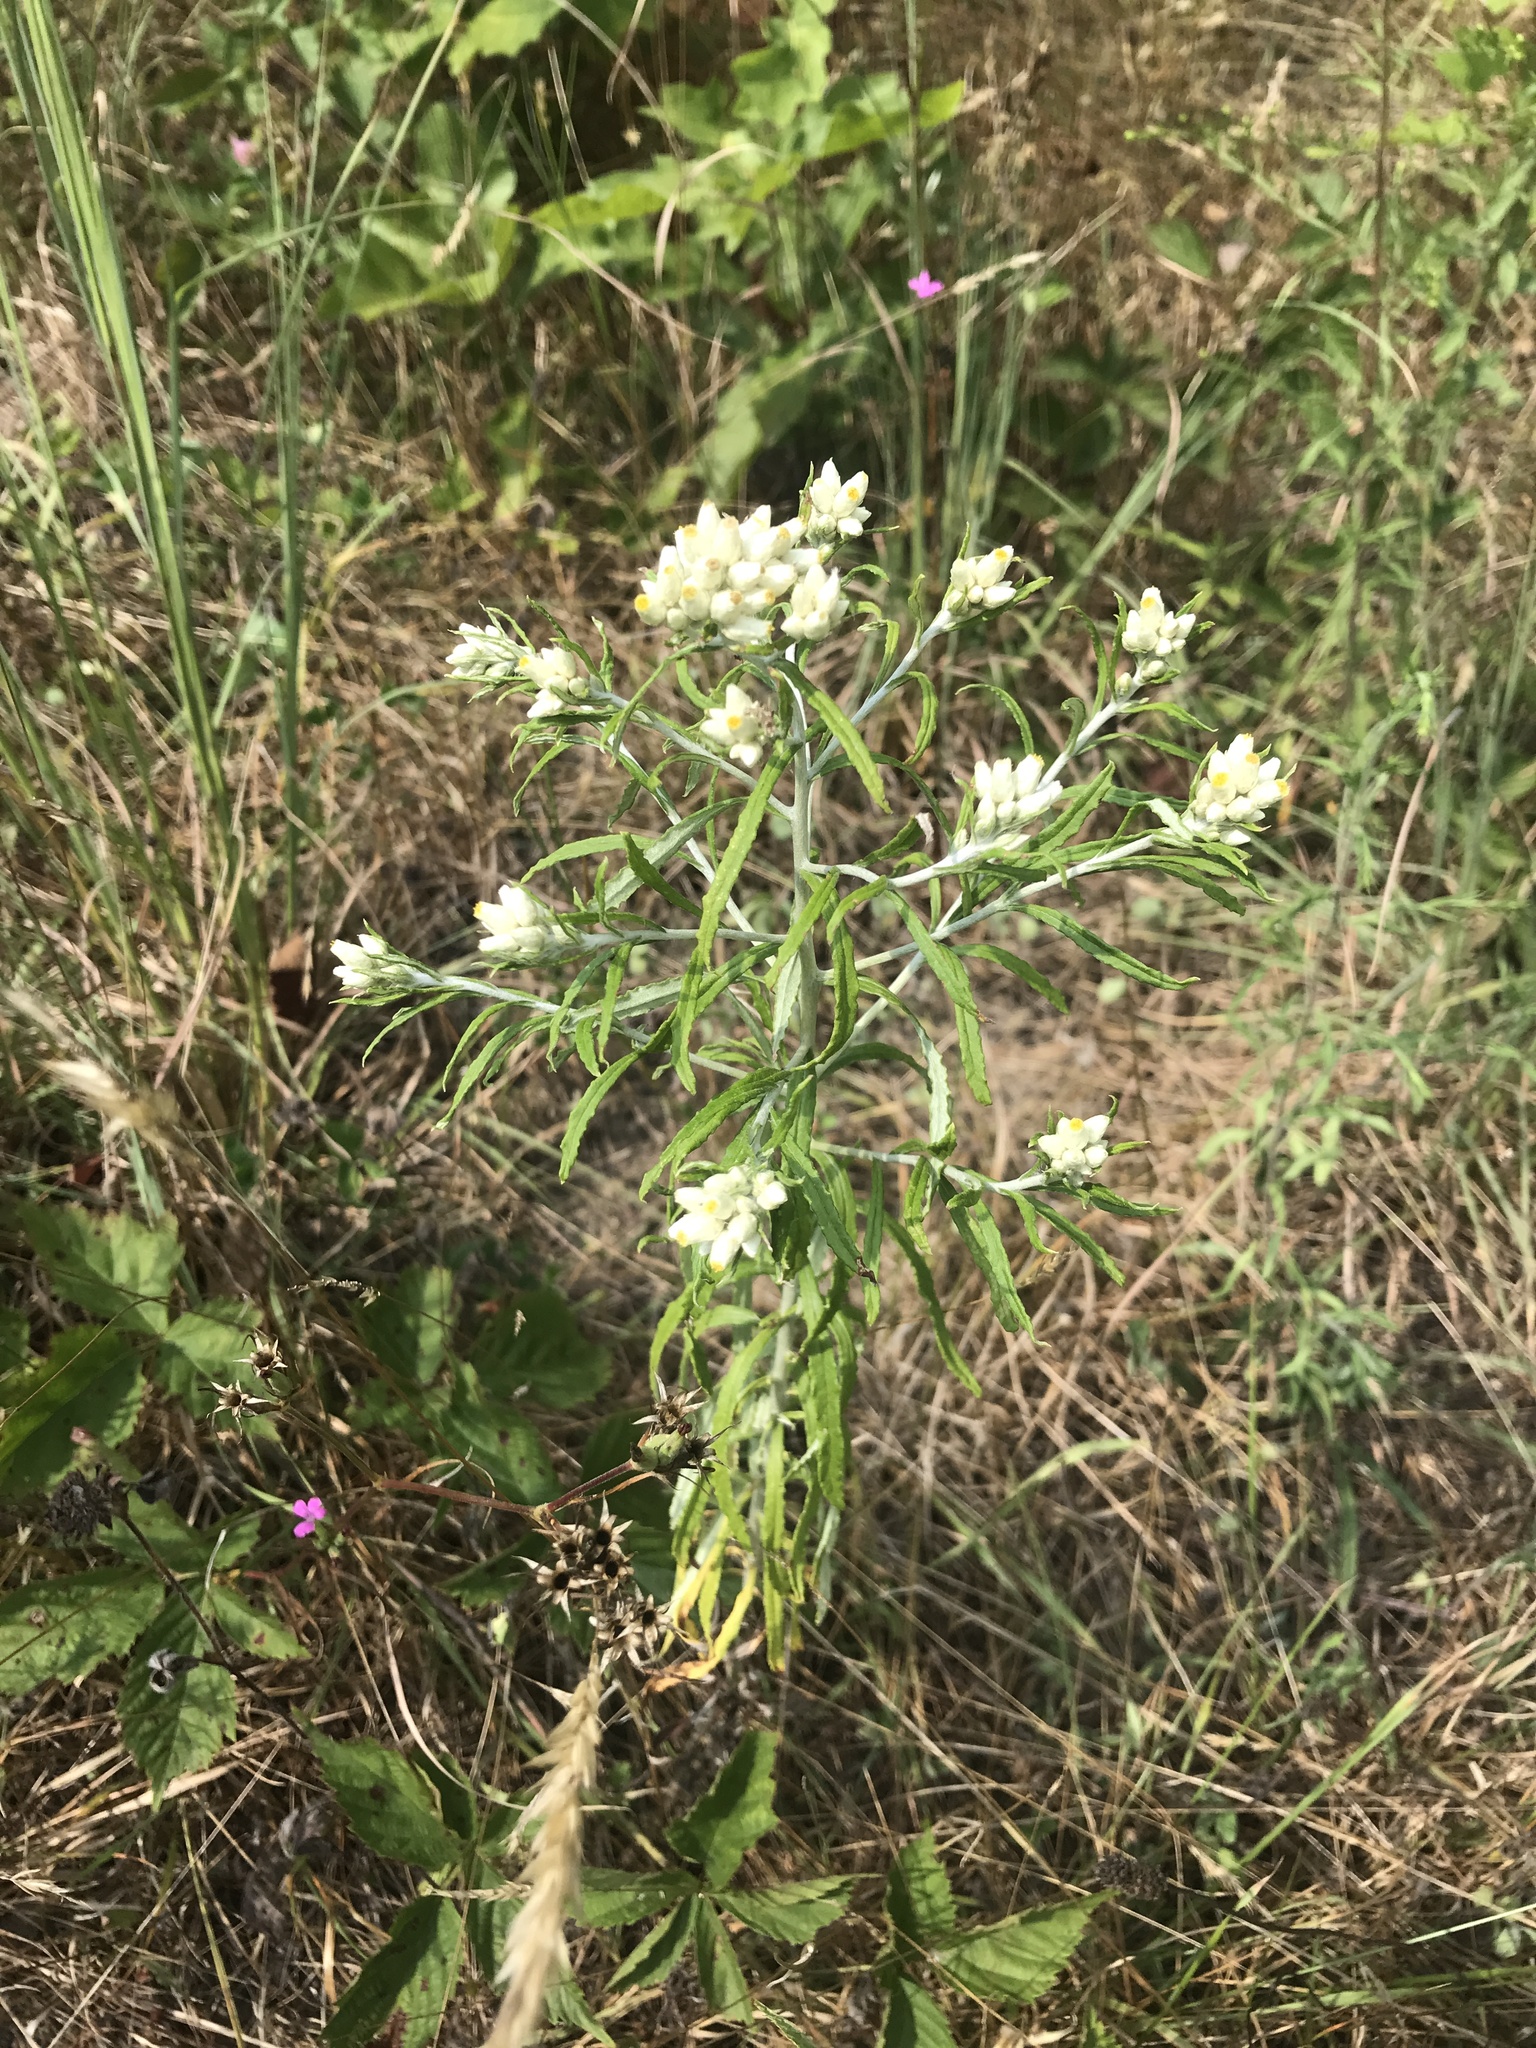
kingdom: Plantae
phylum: Tracheophyta
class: Magnoliopsida
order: Asterales
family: Asteraceae
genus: Pseudognaphalium
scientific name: Pseudognaphalium obtusifolium
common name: Eastern rabbit-tobacco
